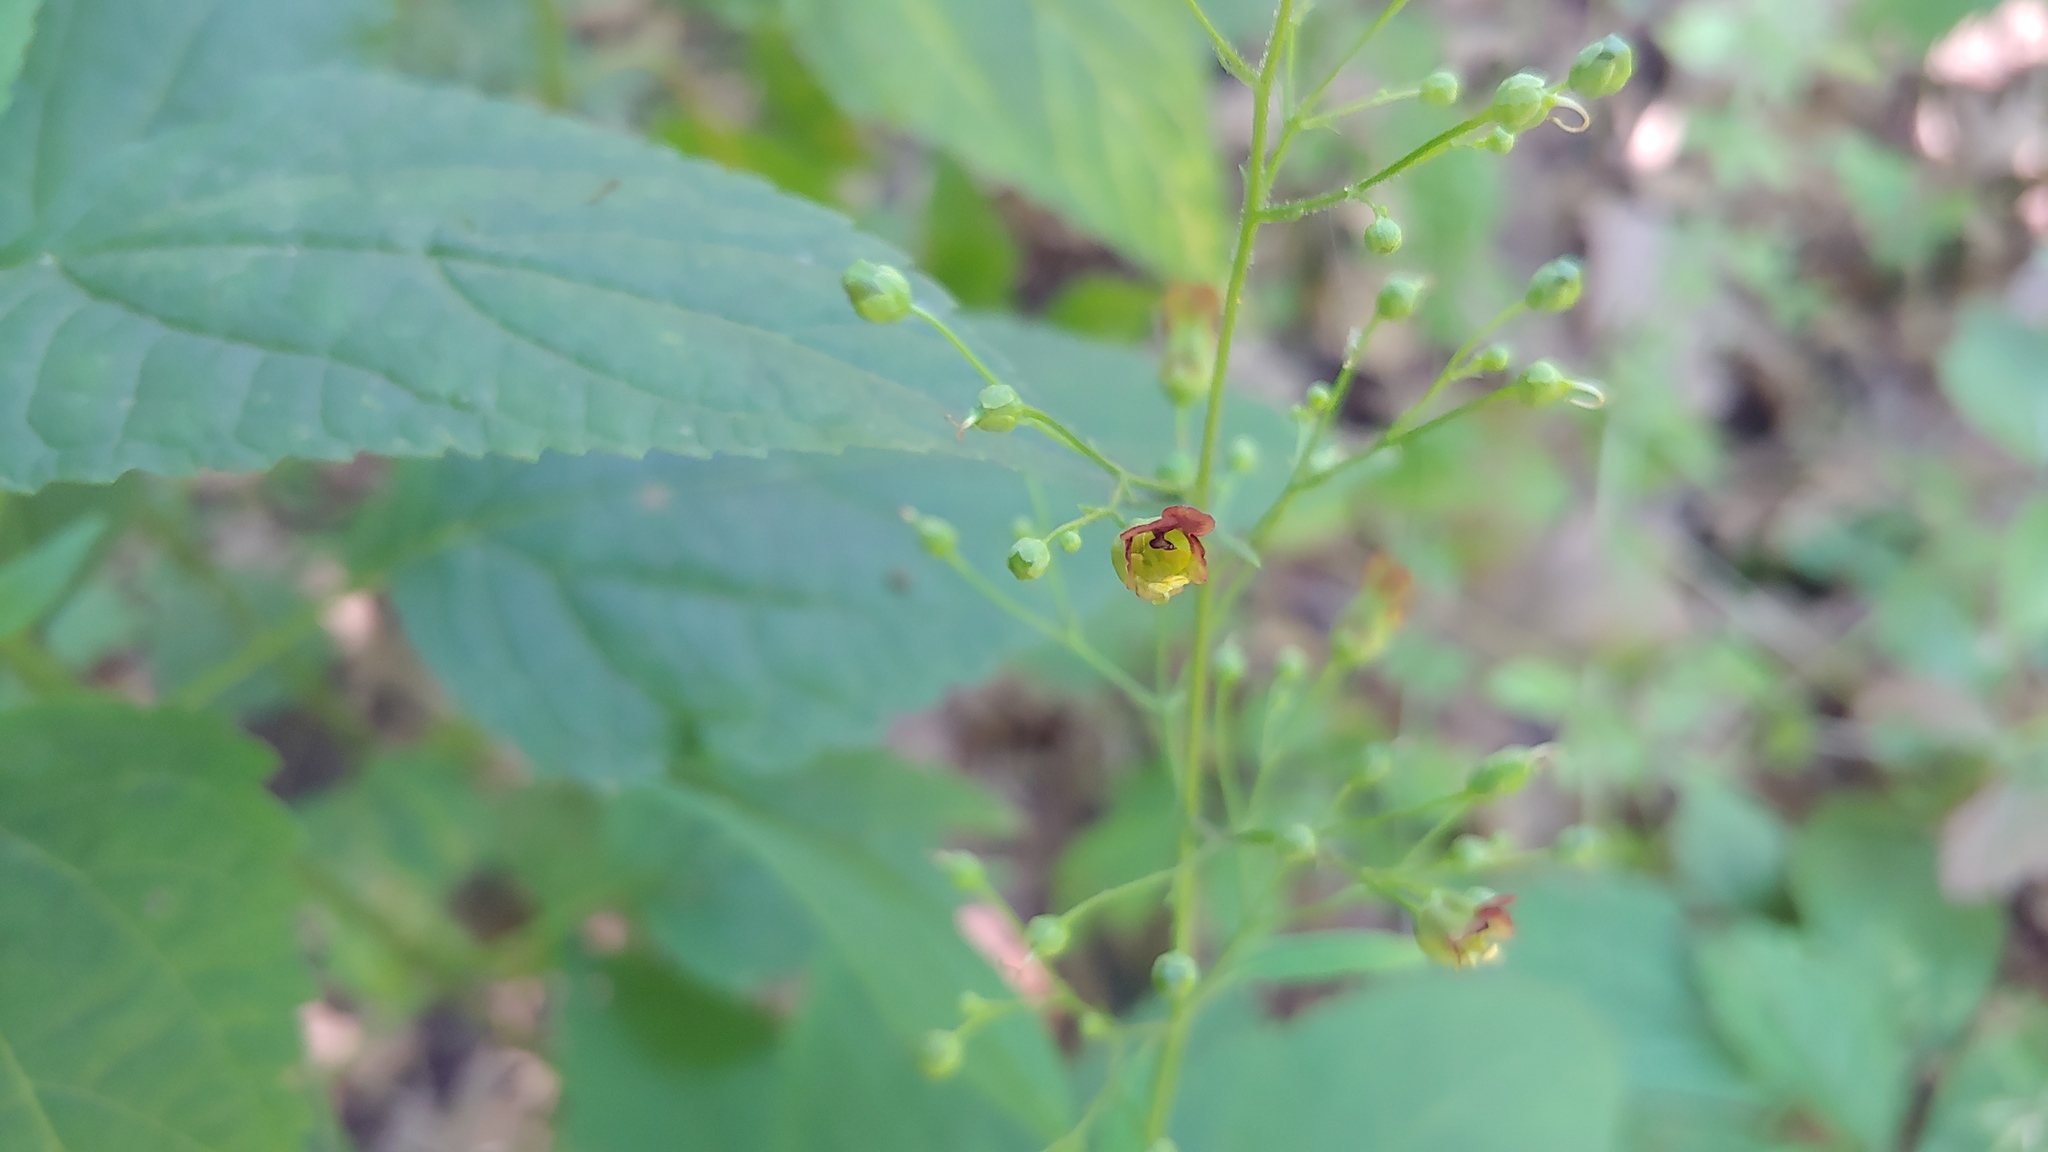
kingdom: Plantae
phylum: Tracheophyta
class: Magnoliopsida
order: Lamiales
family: Scrophulariaceae
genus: Scrophularia
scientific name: Scrophularia marilandica
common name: Eastern figwort
